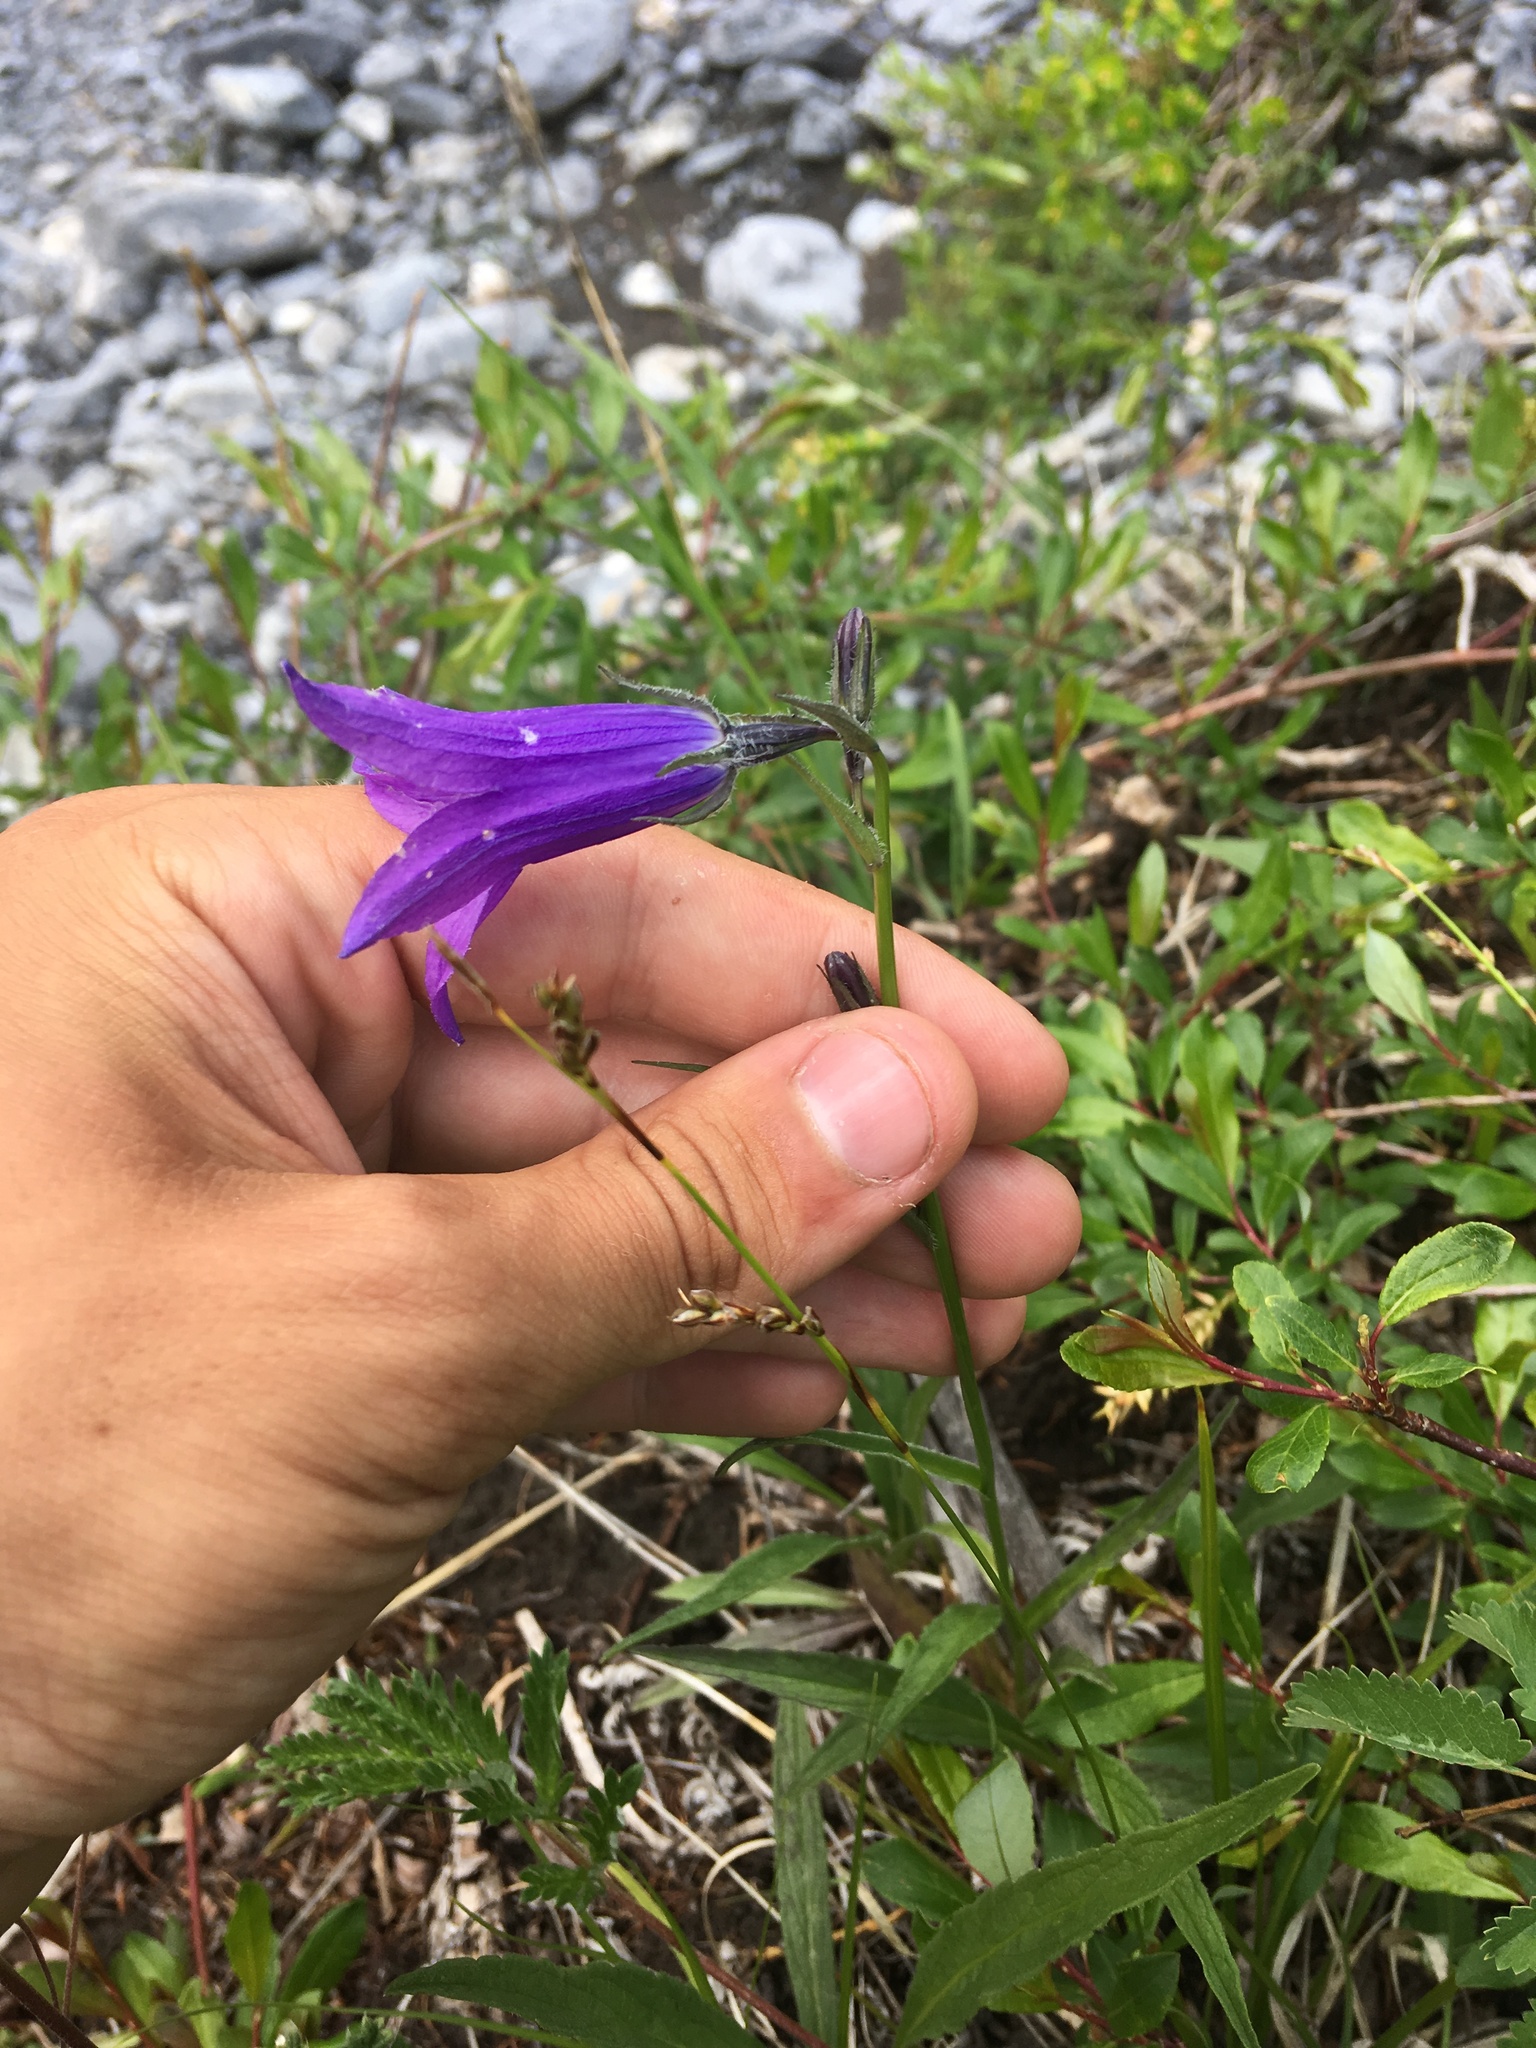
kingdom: Plantae
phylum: Tracheophyta
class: Magnoliopsida
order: Asterales
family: Campanulaceae
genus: Campanula
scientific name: Campanula stevenii
